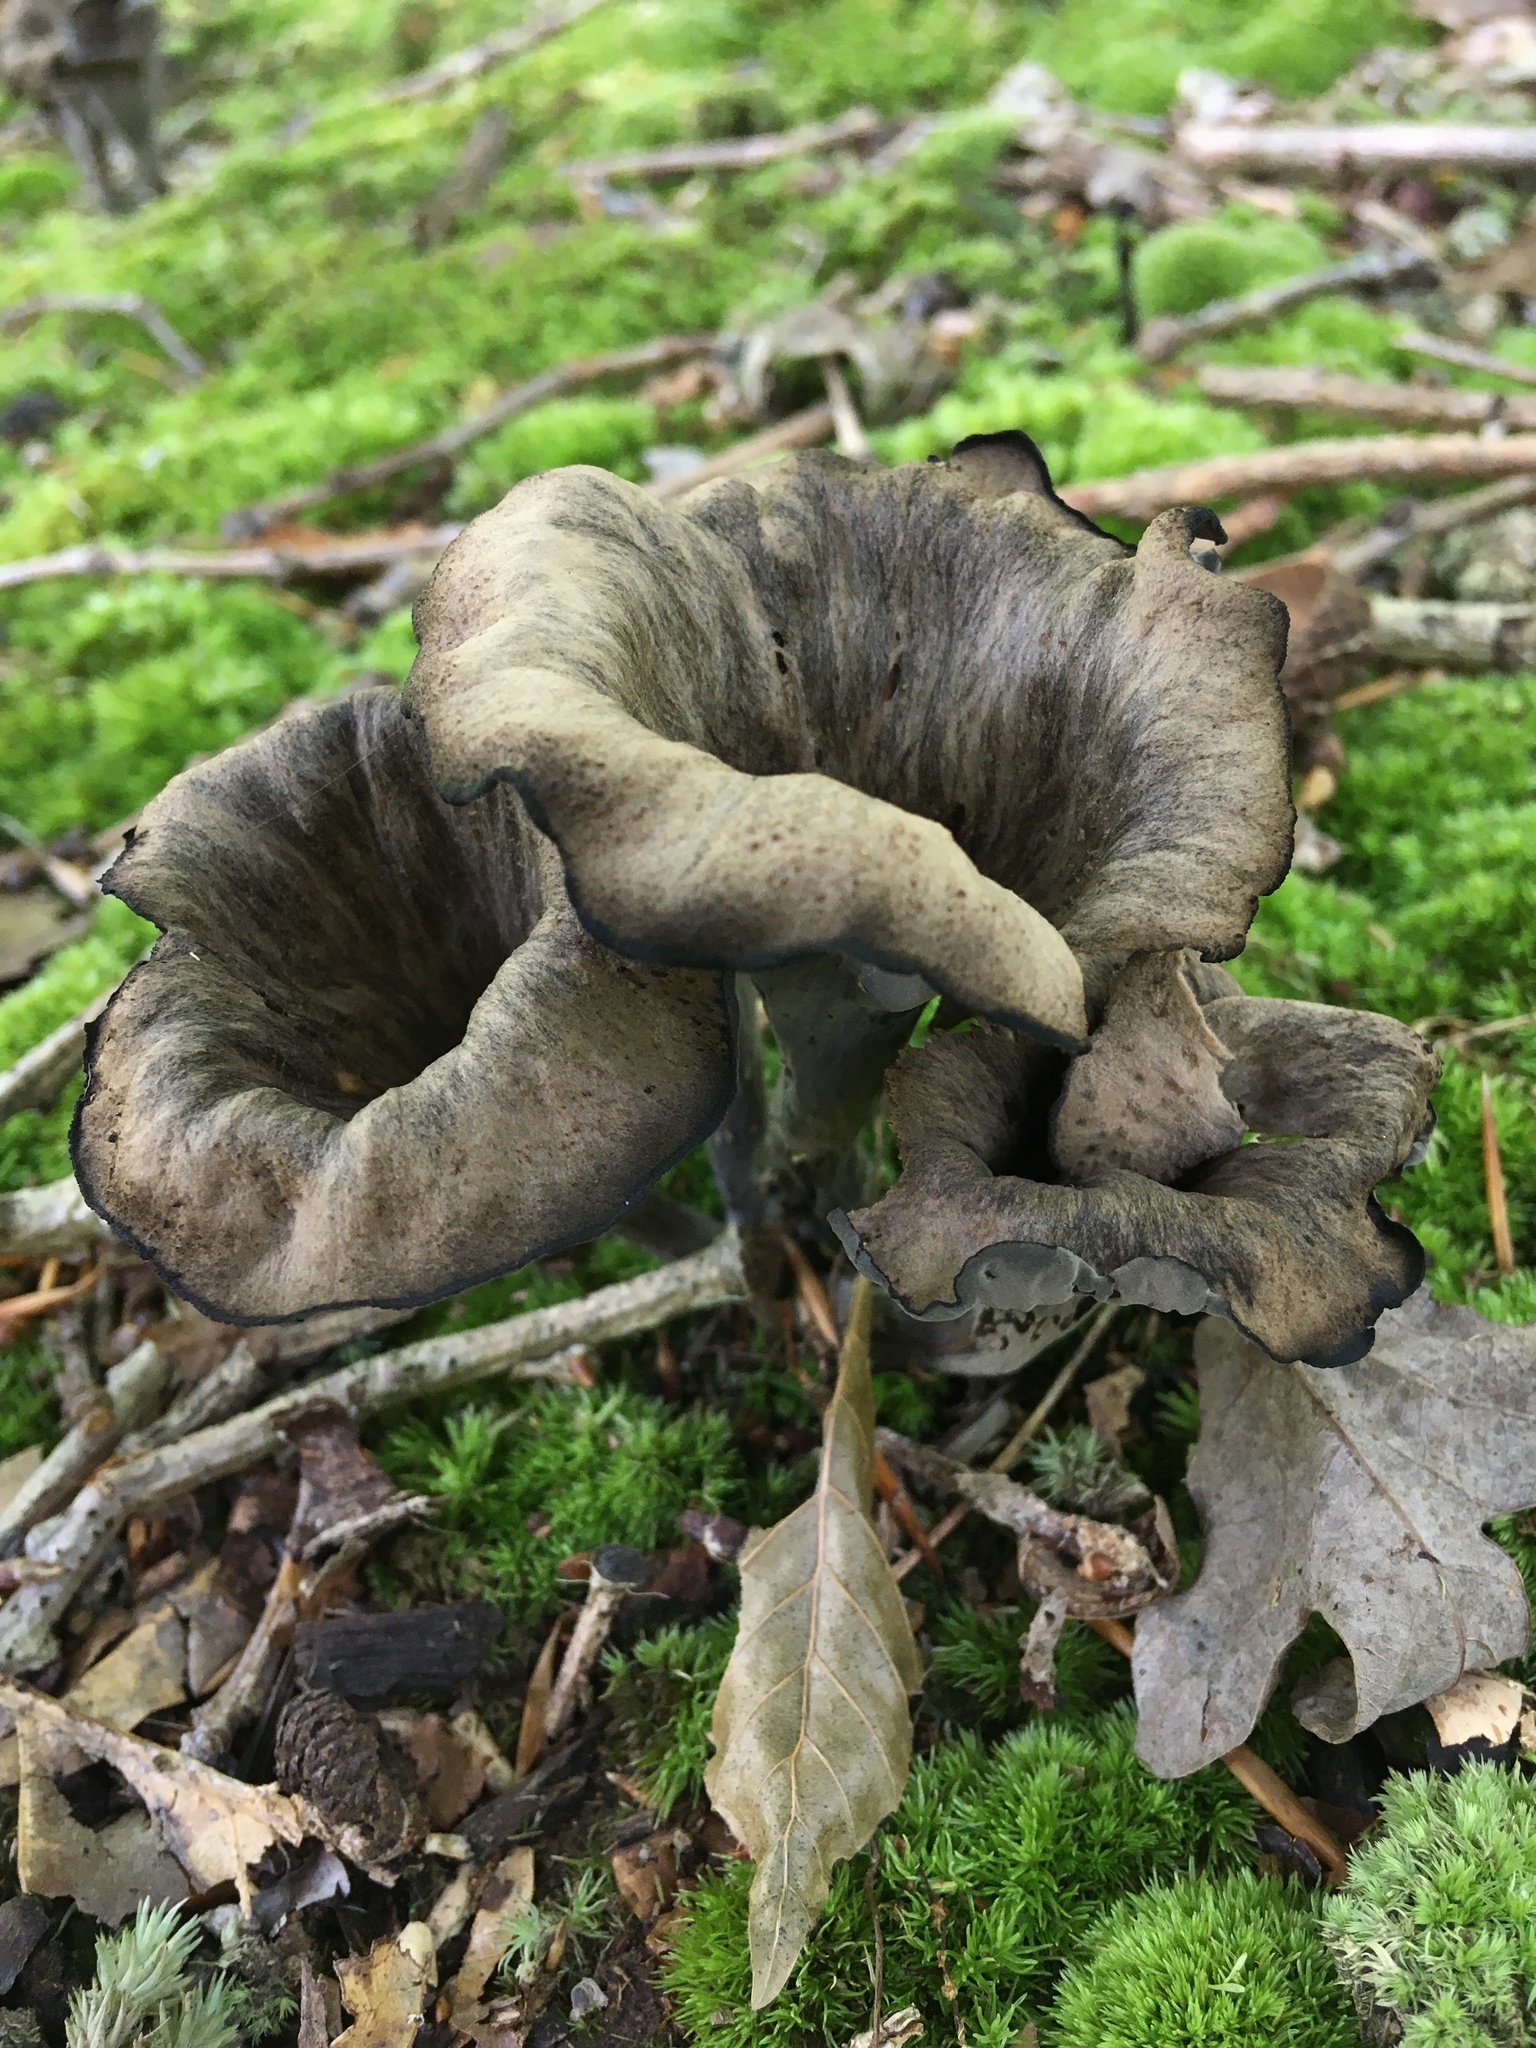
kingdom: Fungi
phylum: Basidiomycota
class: Agaricomycetes
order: Cantharellales
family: Hydnaceae
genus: Craterellus
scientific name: Craterellus cornucopioides
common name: Horn of plenty
